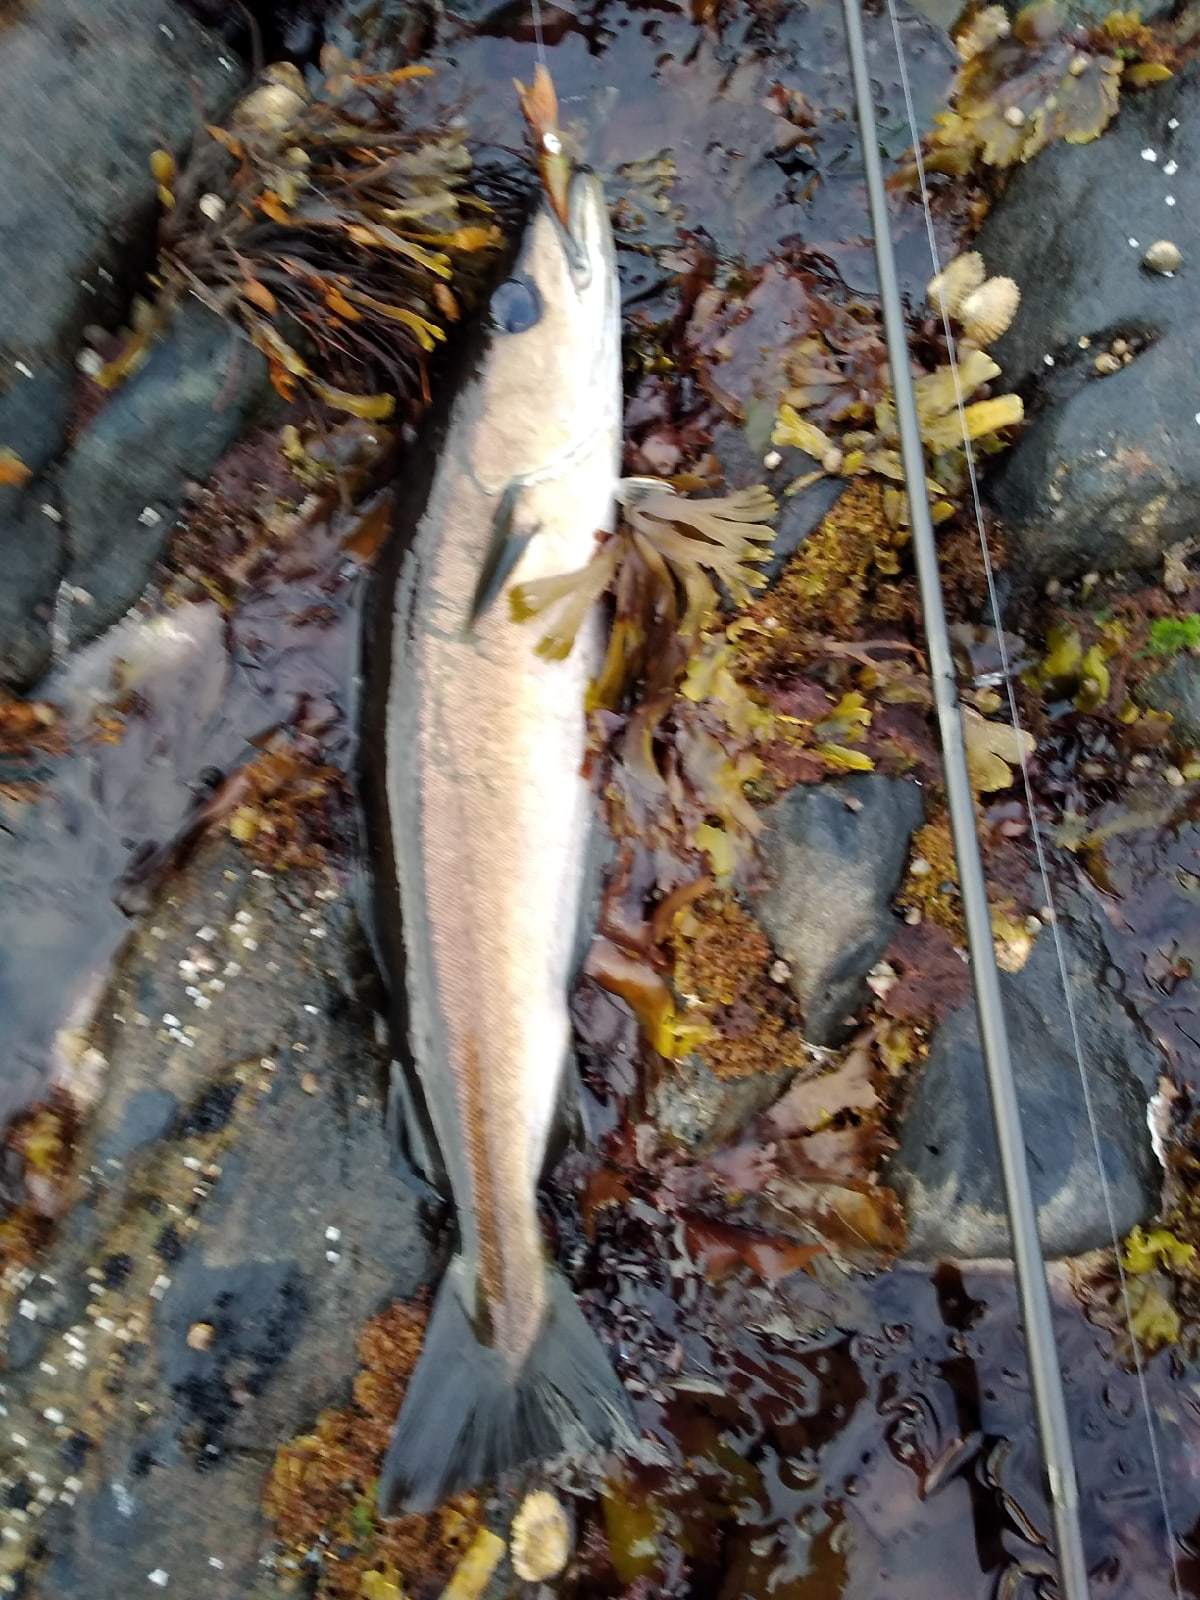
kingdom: Animalia
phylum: Chordata
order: Gadiformes
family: Gadidae
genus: Pollachius
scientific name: Pollachius pollachius
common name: Pollack
